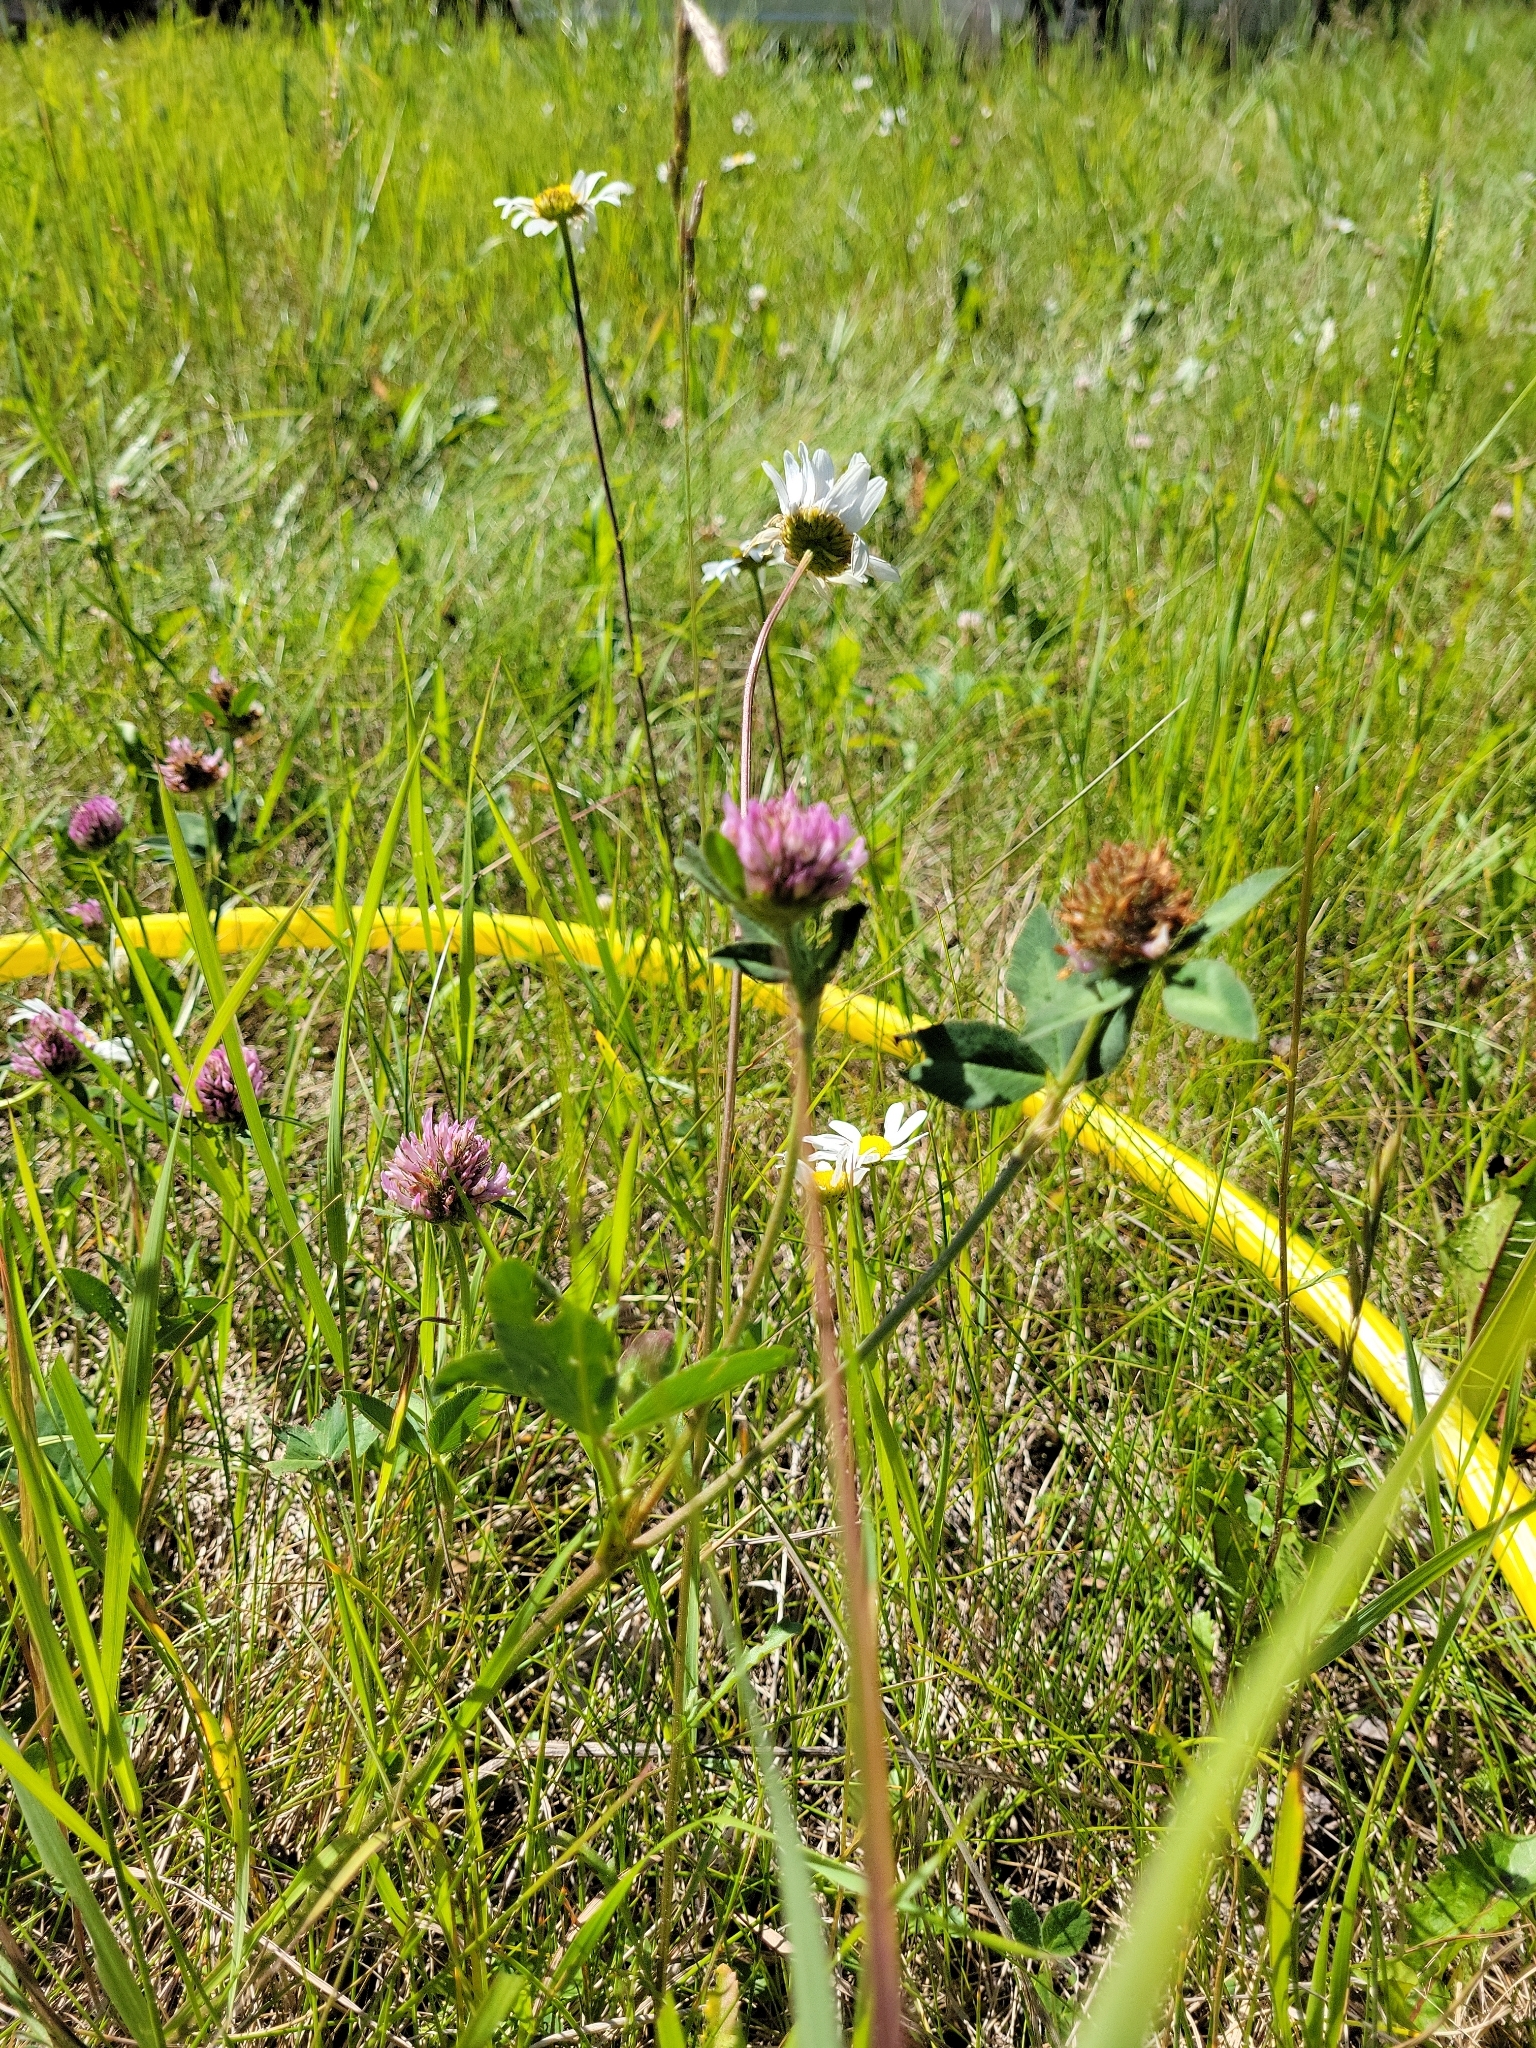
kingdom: Plantae
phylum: Tracheophyta
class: Magnoliopsida
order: Fabales
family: Fabaceae
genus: Trifolium
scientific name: Trifolium pratense
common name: Red clover
